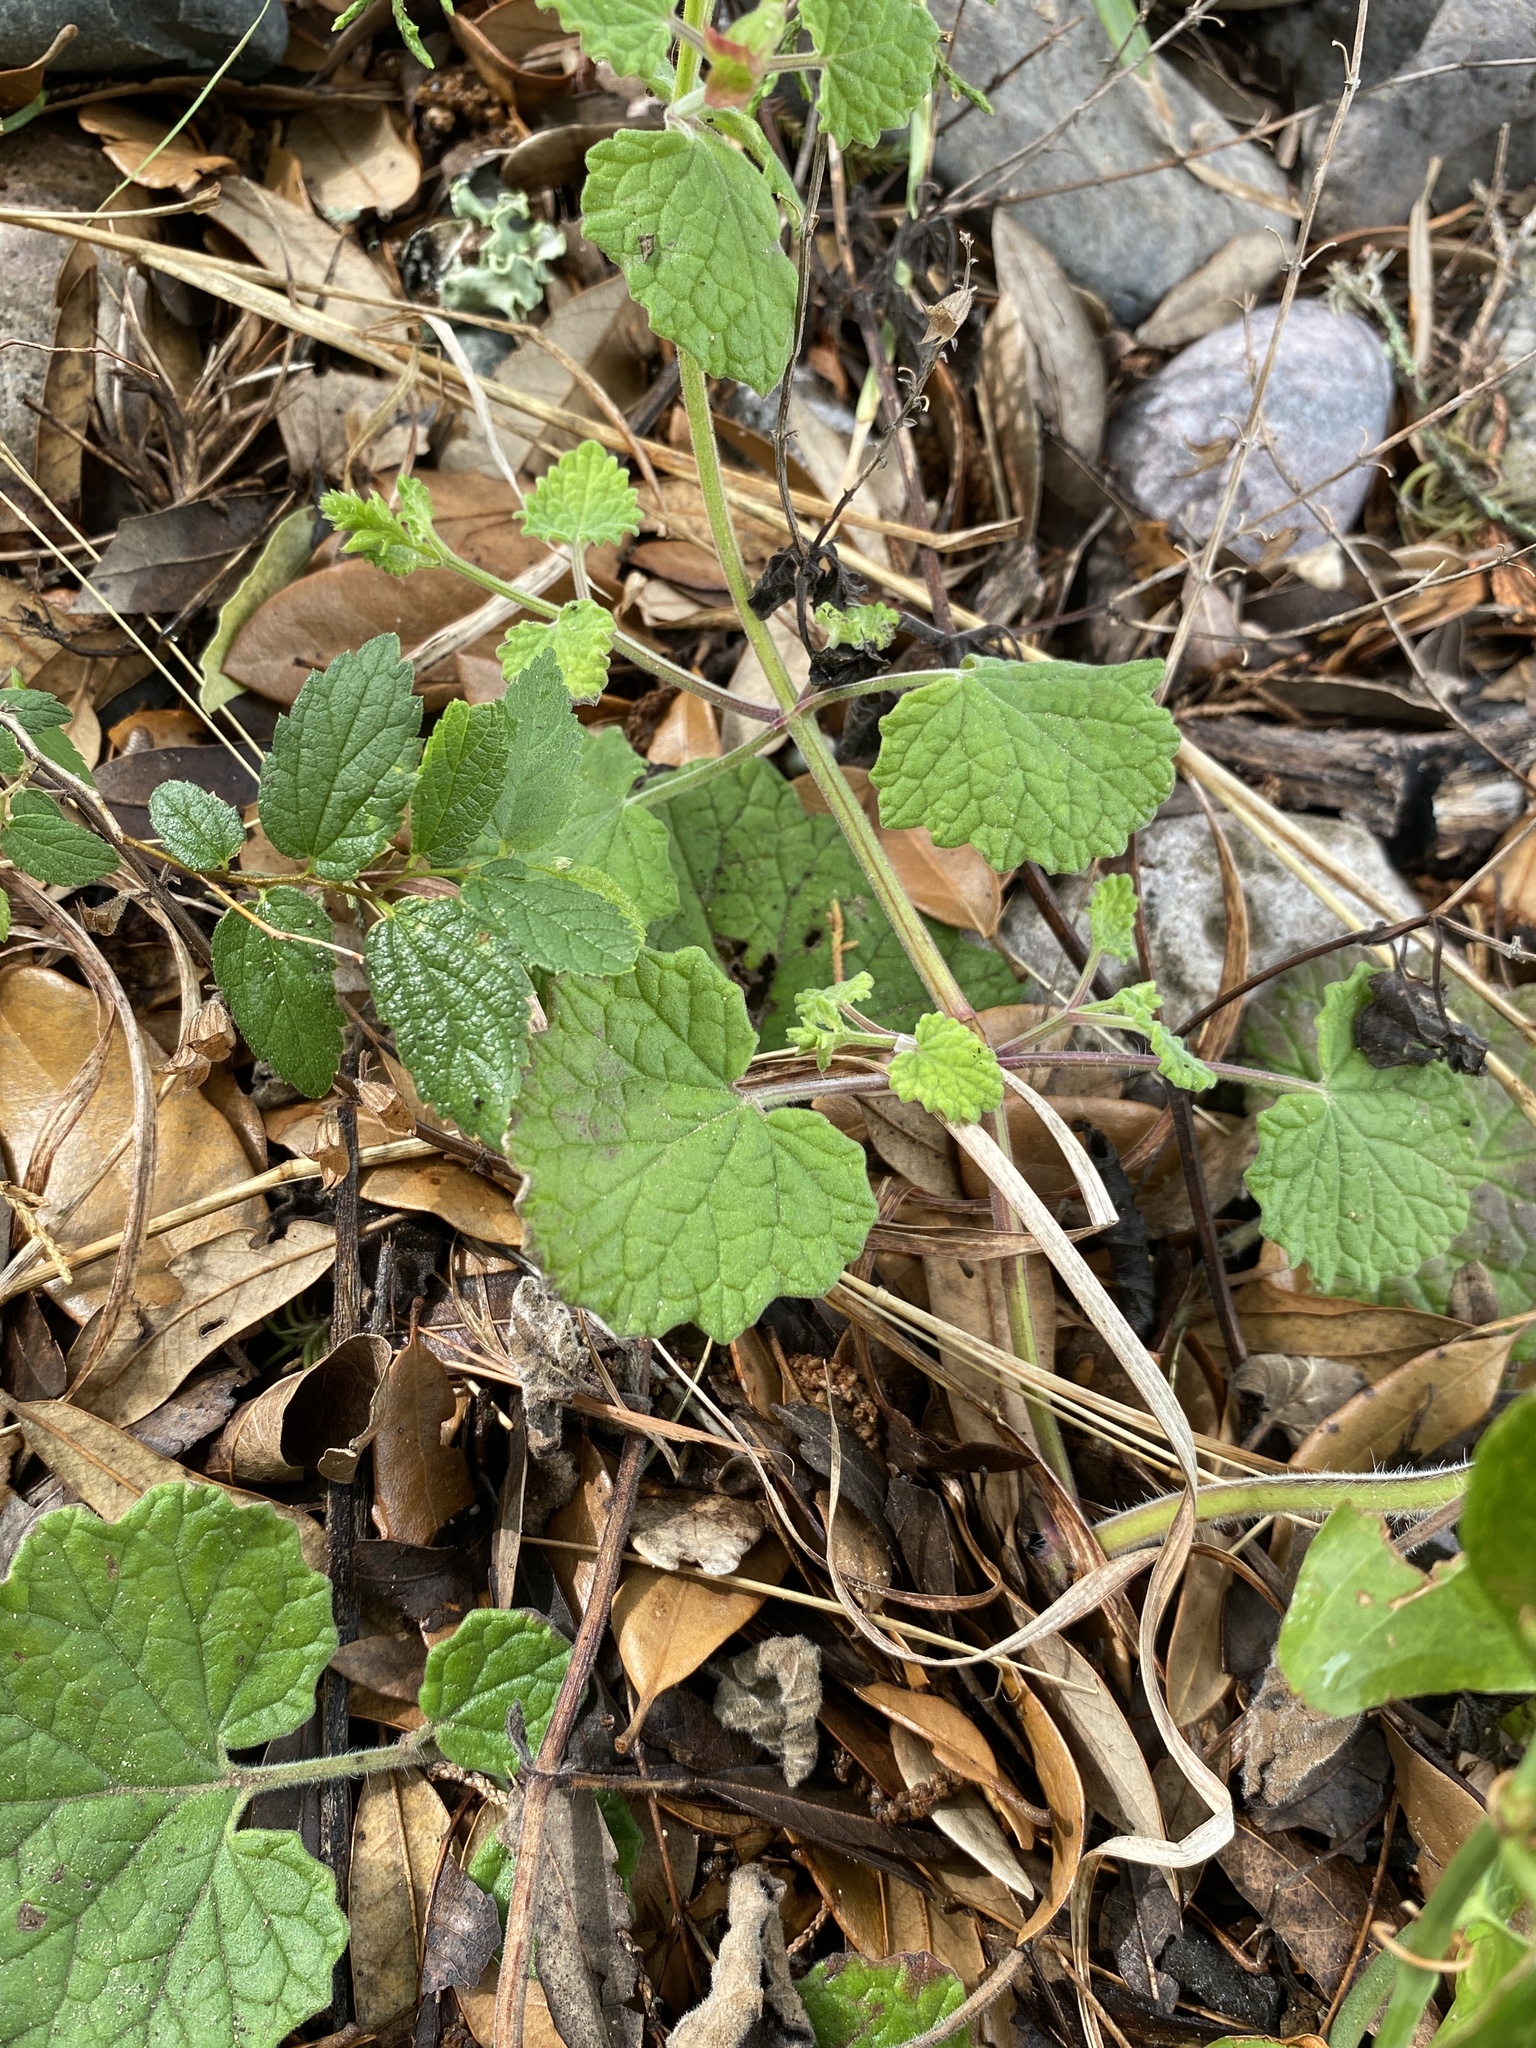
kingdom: Plantae
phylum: Tracheophyta
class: Magnoliopsida
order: Lamiales
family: Lamiaceae
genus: Salvia
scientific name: Salvia roemeriana
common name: Cedar sage
